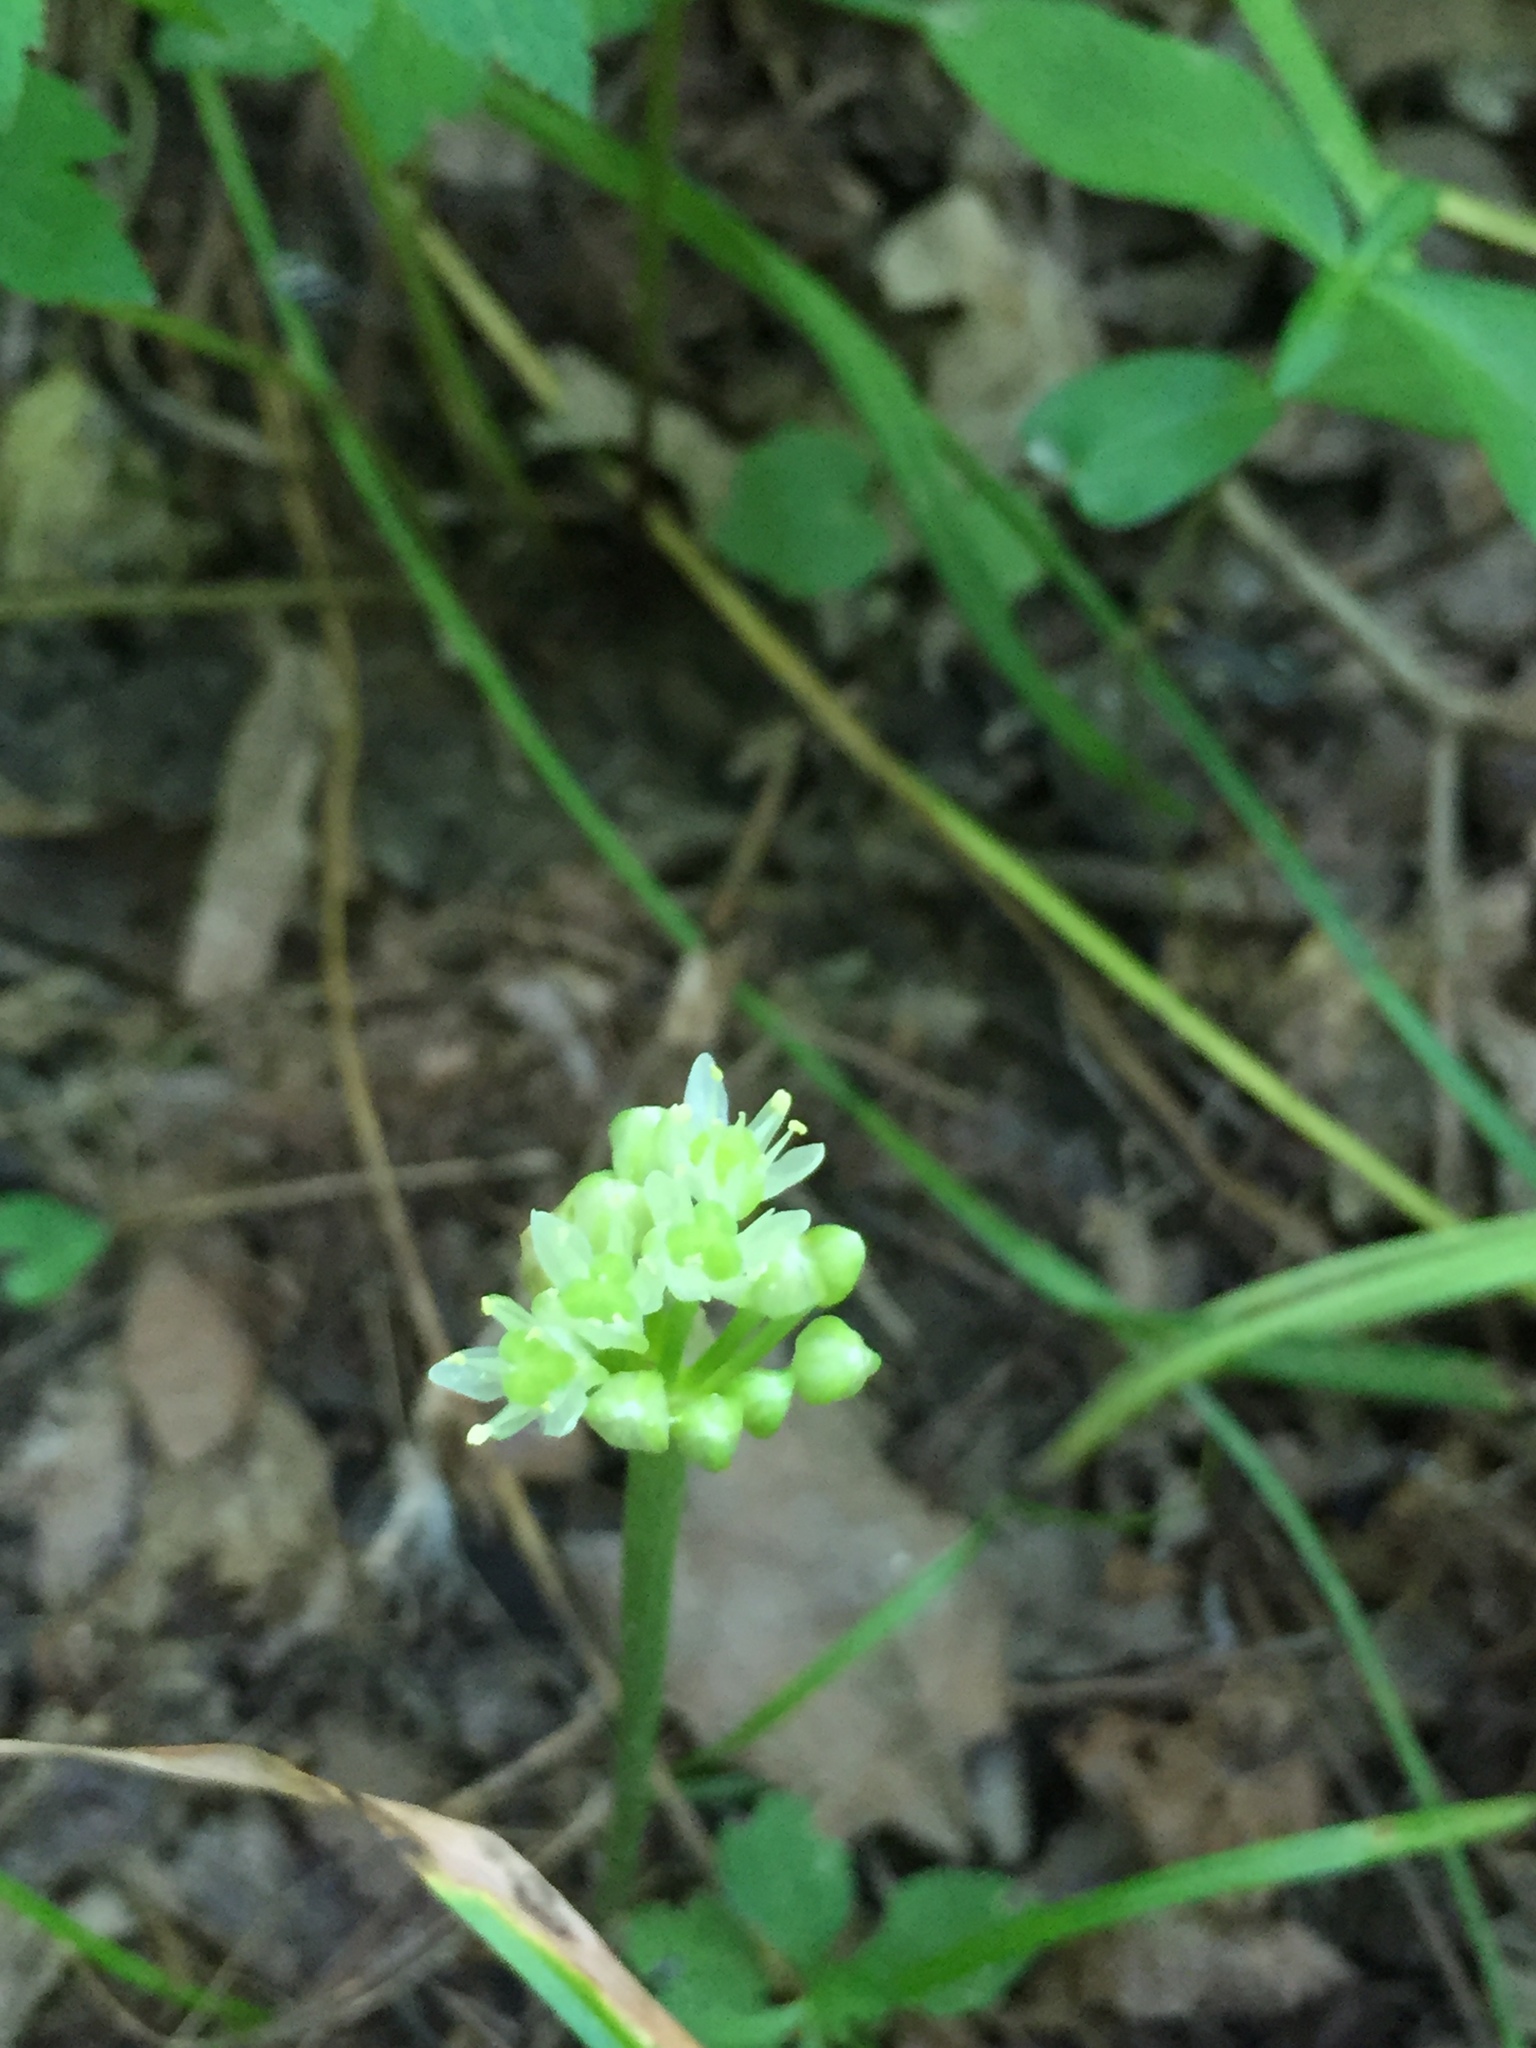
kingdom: Plantae
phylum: Tracheophyta
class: Liliopsida
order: Asparagales
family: Amaryllidaceae
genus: Allium
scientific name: Allium tricoccum
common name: Ramp
